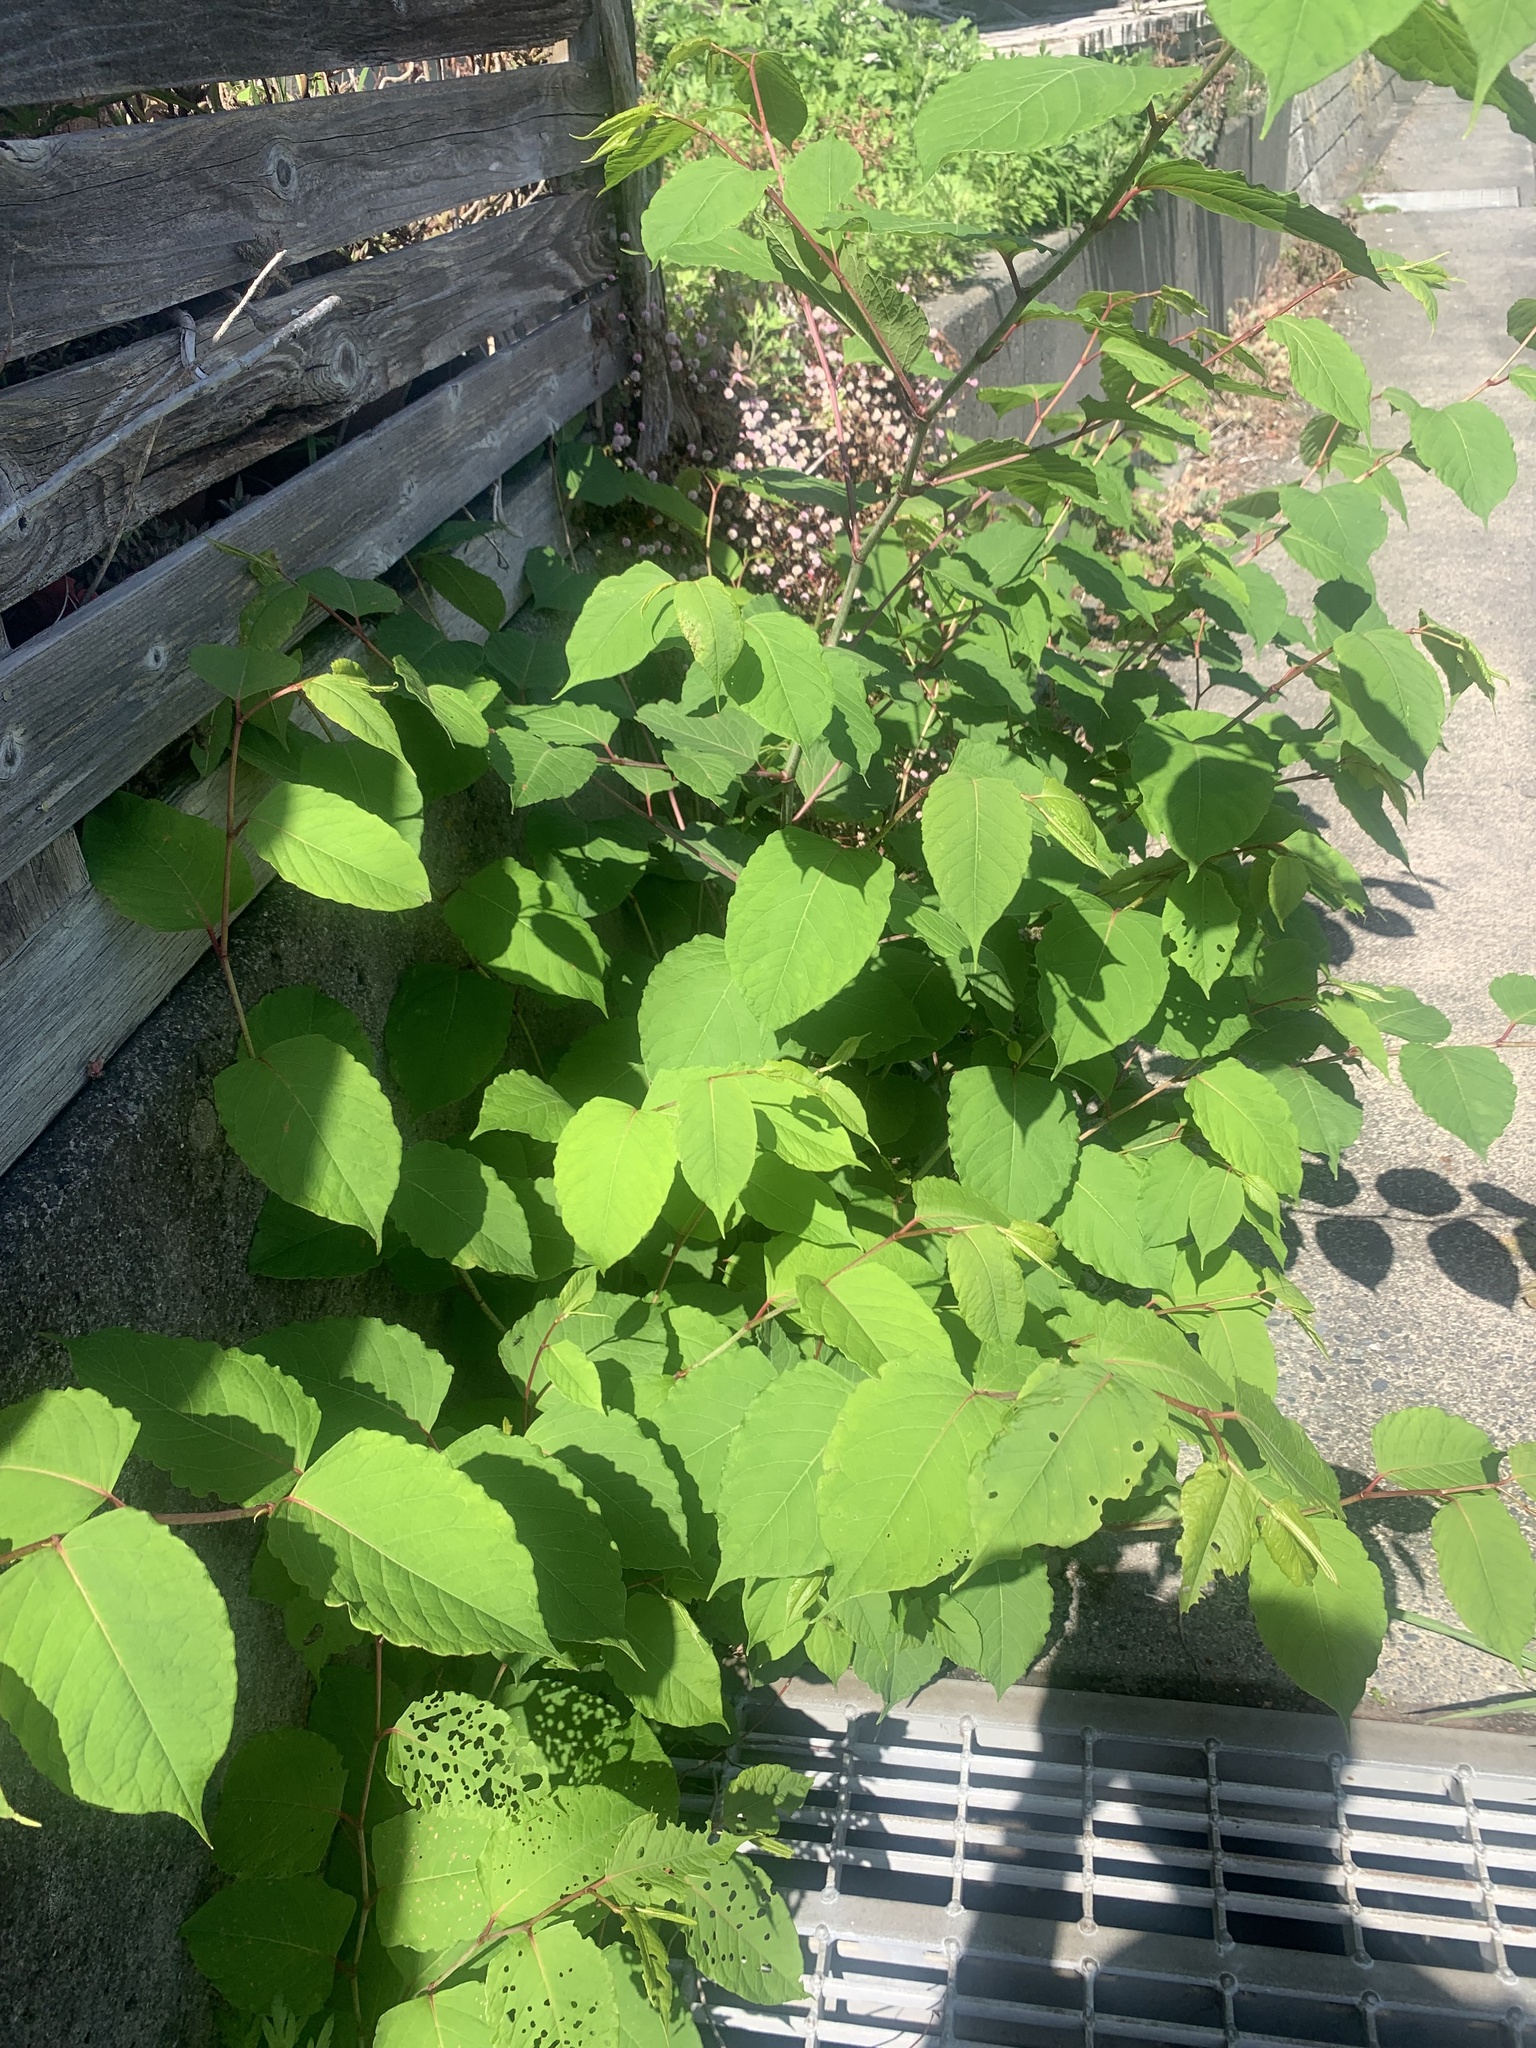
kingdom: Plantae
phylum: Tracheophyta
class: Magnoliopsida
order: Caryophyllales
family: Polygonaceae
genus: Reynoutria
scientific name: Reynoutria japonica
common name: Japanese knotweed
